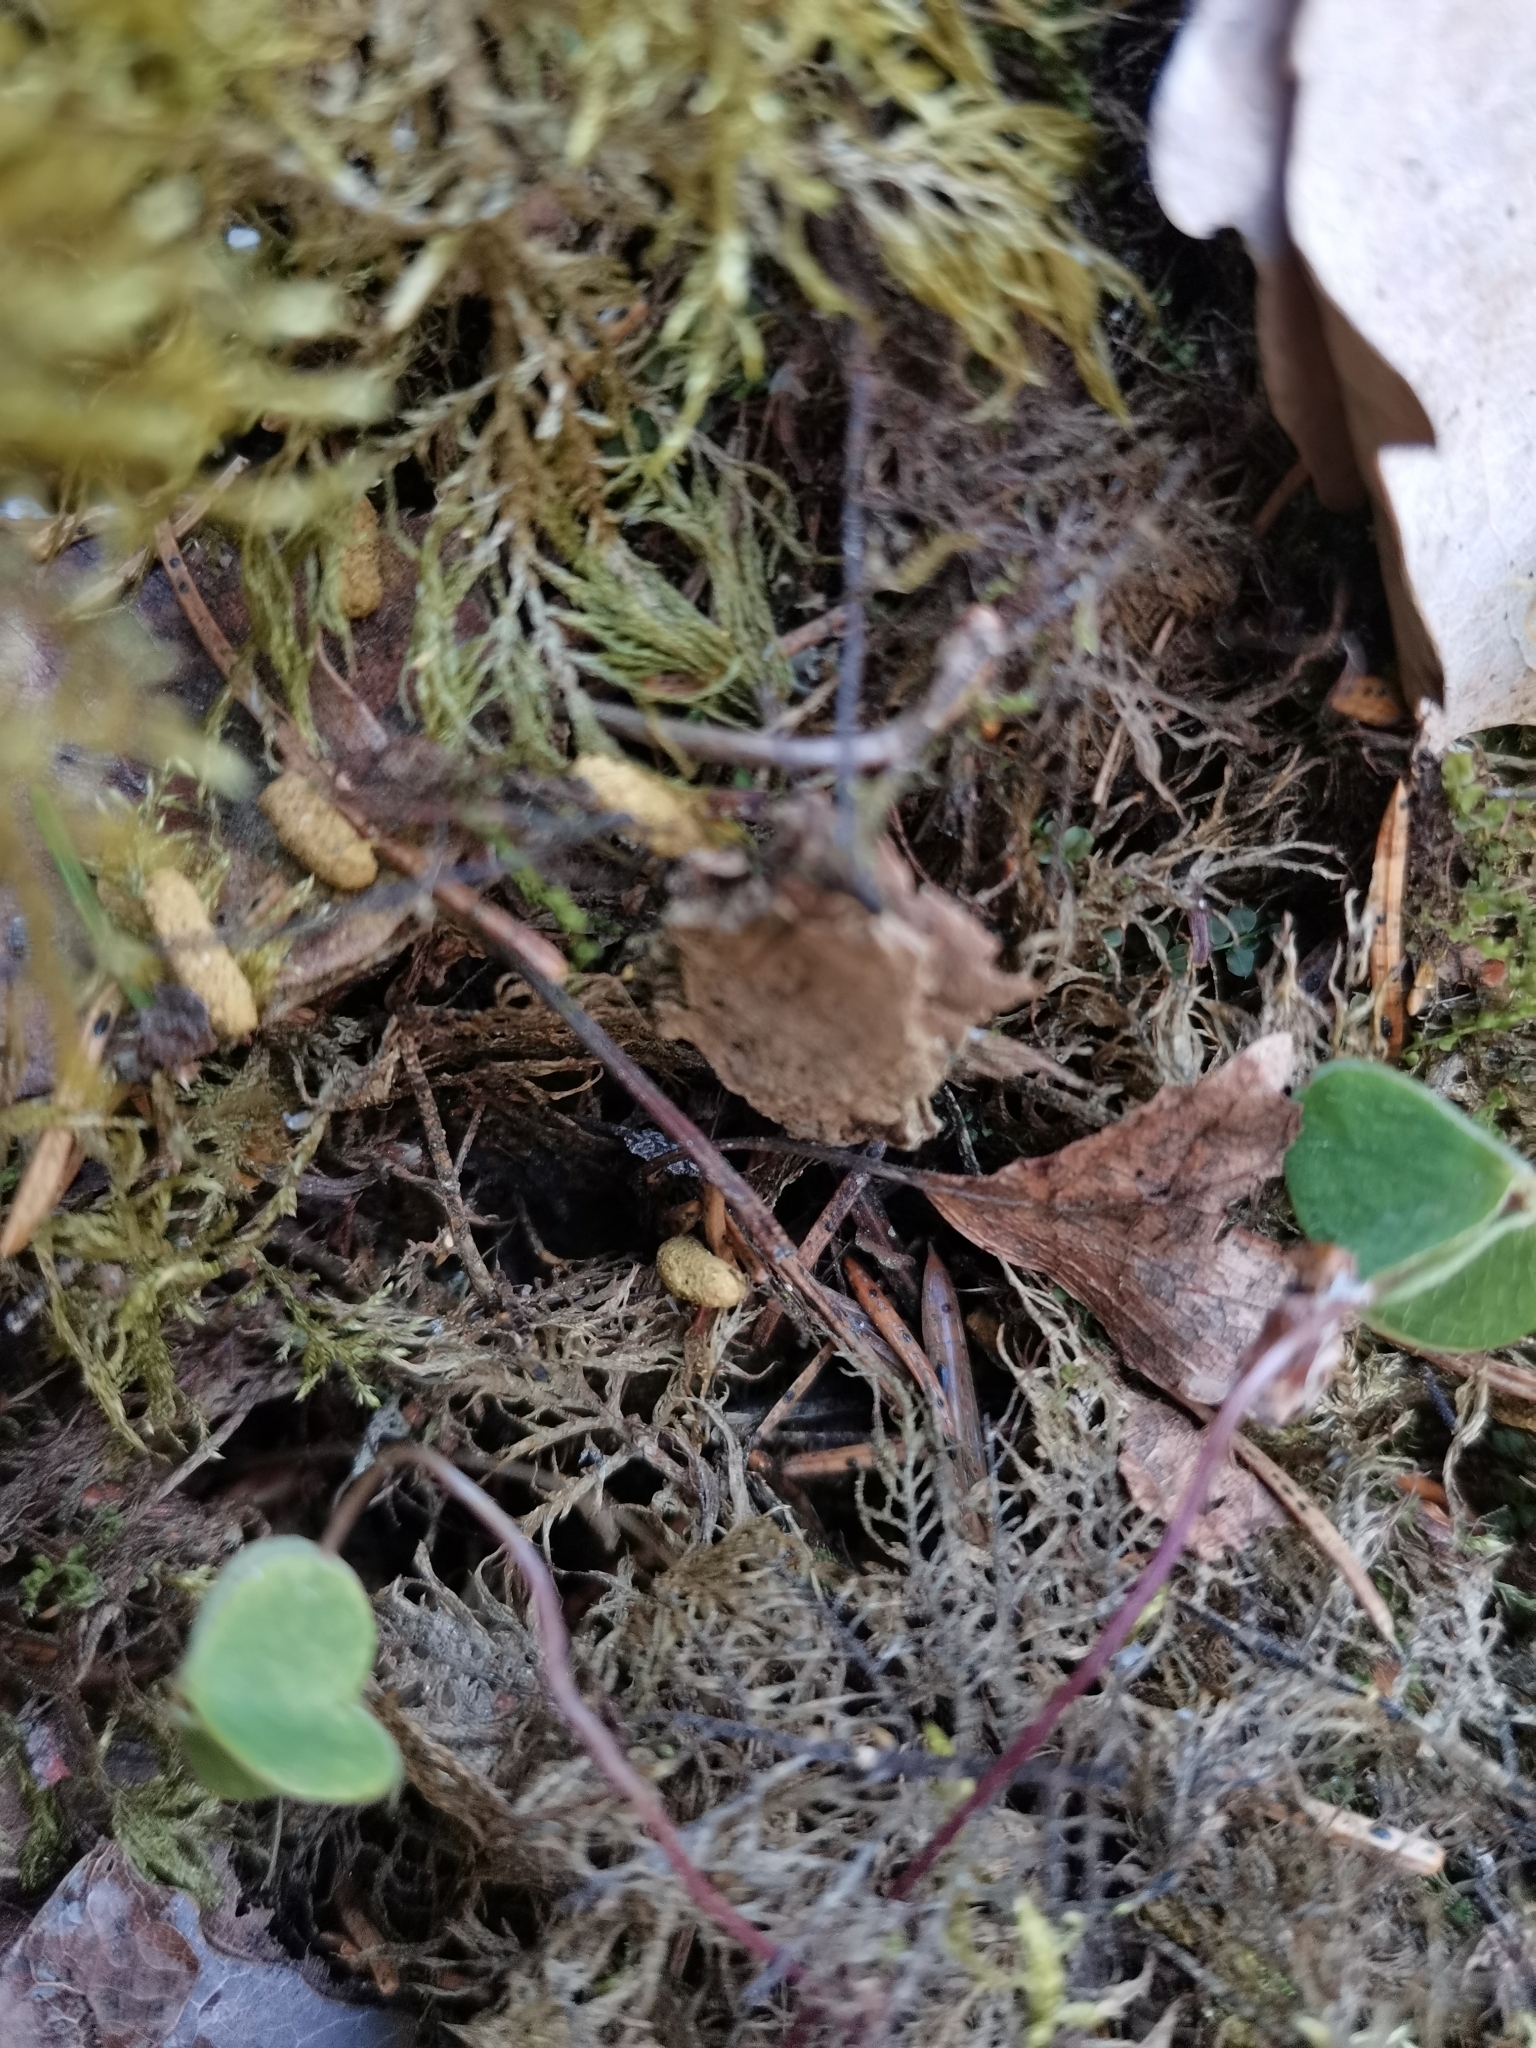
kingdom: Animalia
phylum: Chordata
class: Mammalia
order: Rodentia
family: Sciuridae
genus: Pteromys
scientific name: Pteromys volans
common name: Siberian flying squirrel
